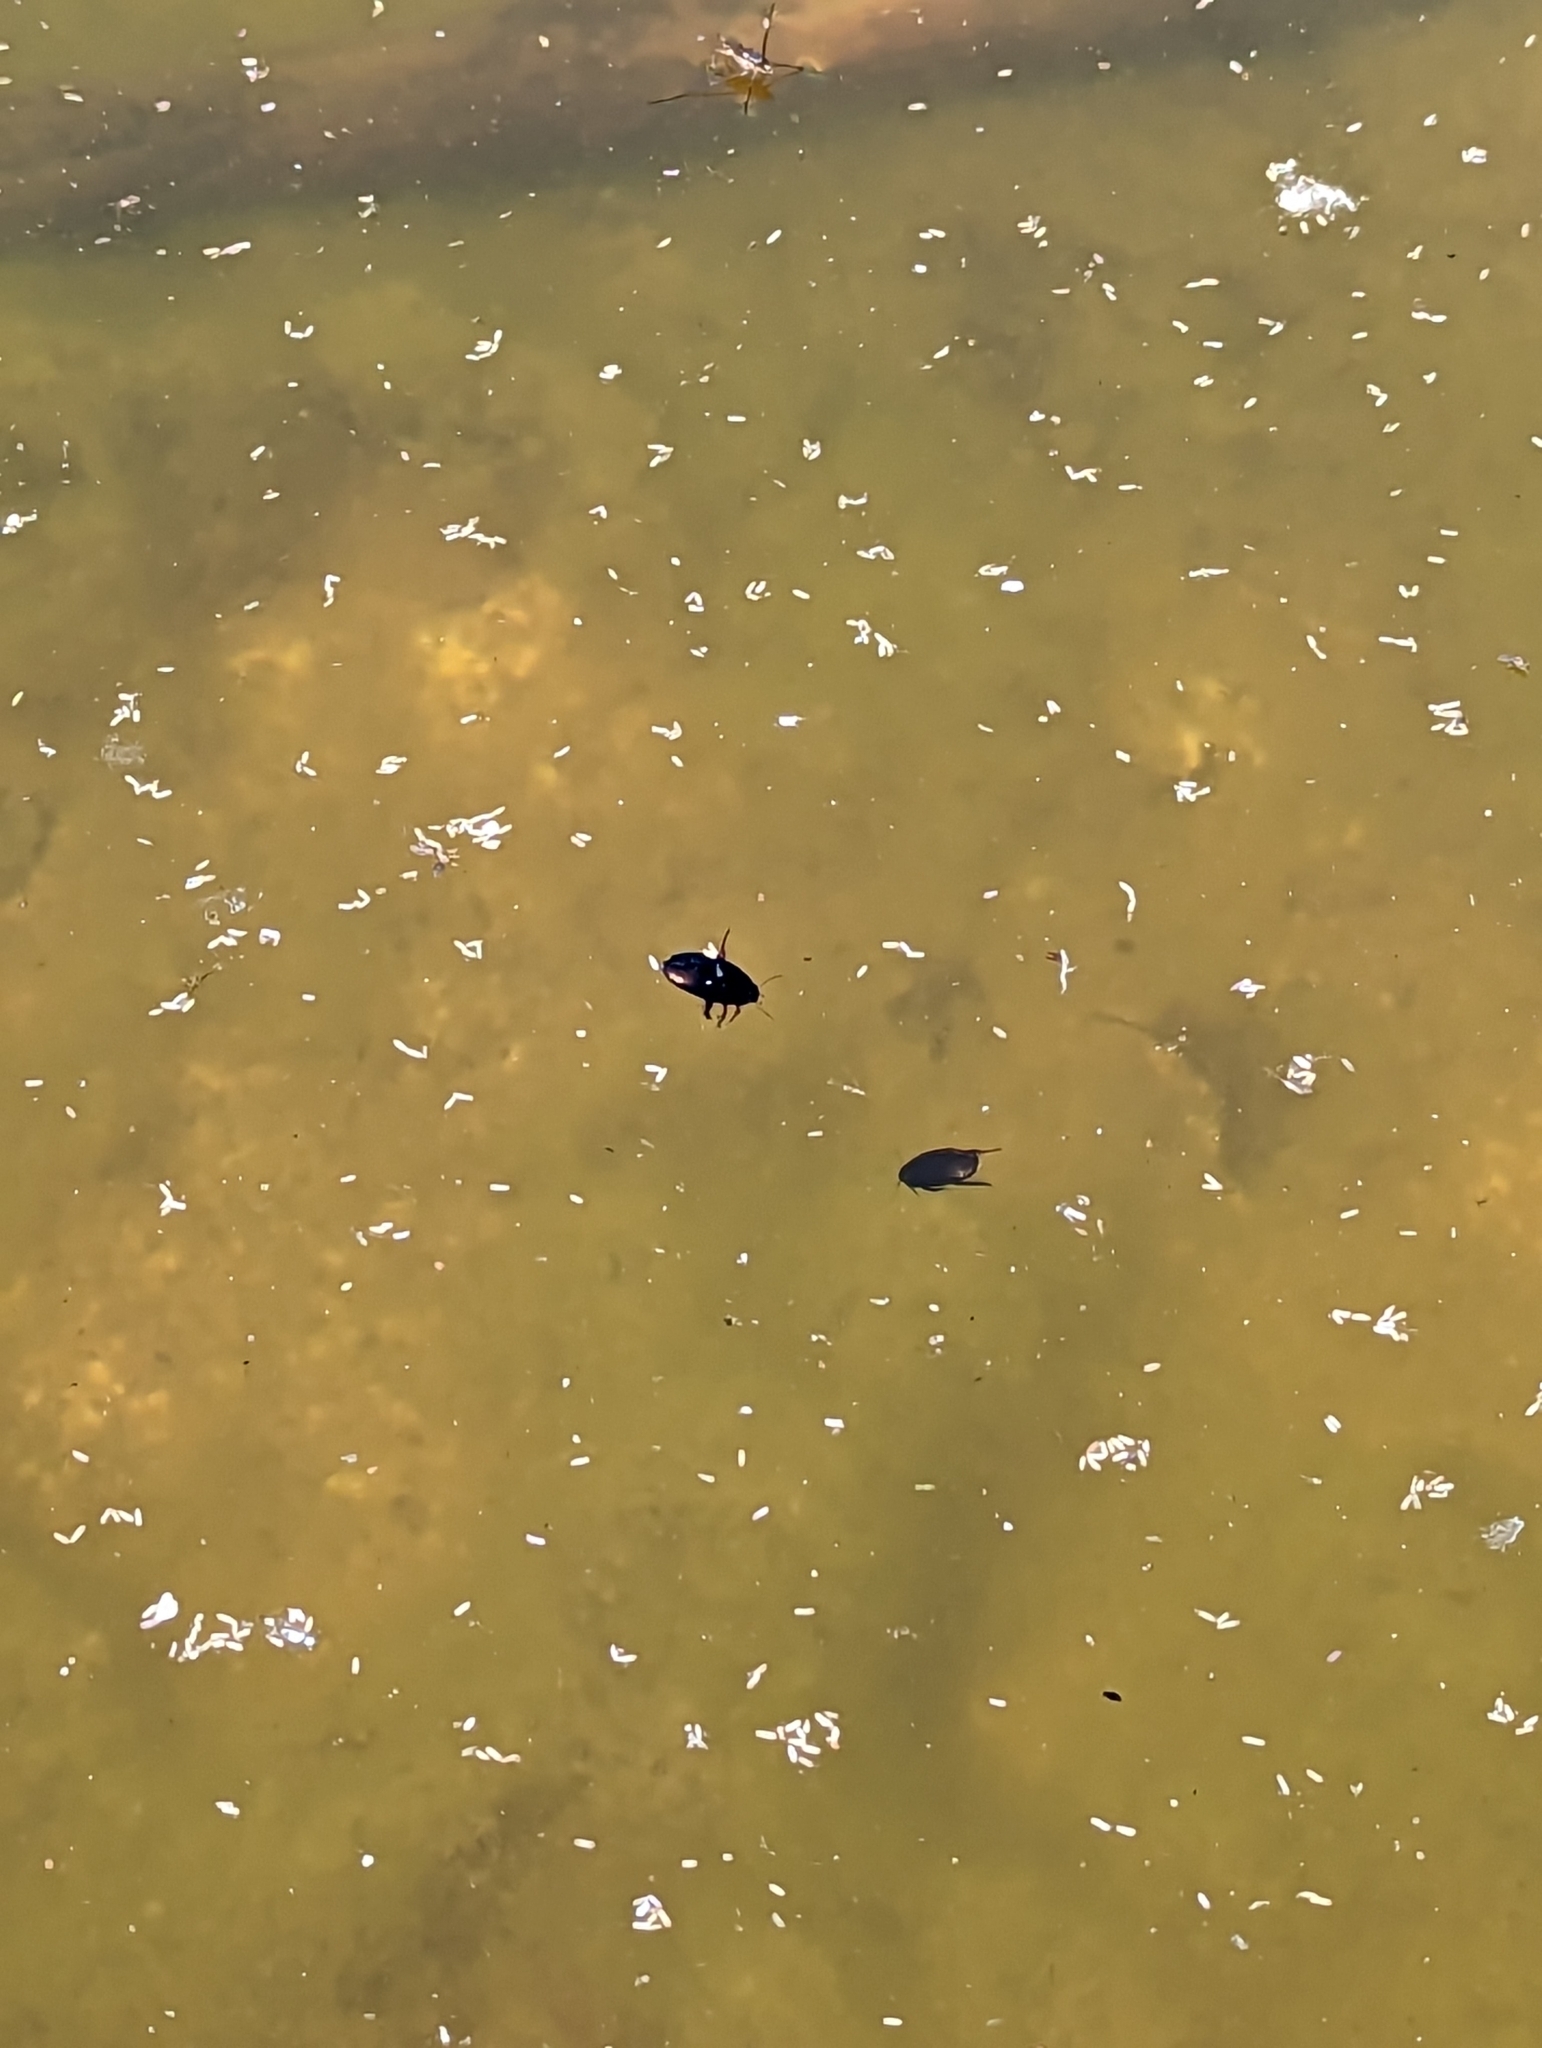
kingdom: Animalia
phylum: Arthropoda
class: Insecta
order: Coleoptera
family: Dytiscidae
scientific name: Dytiscidae
